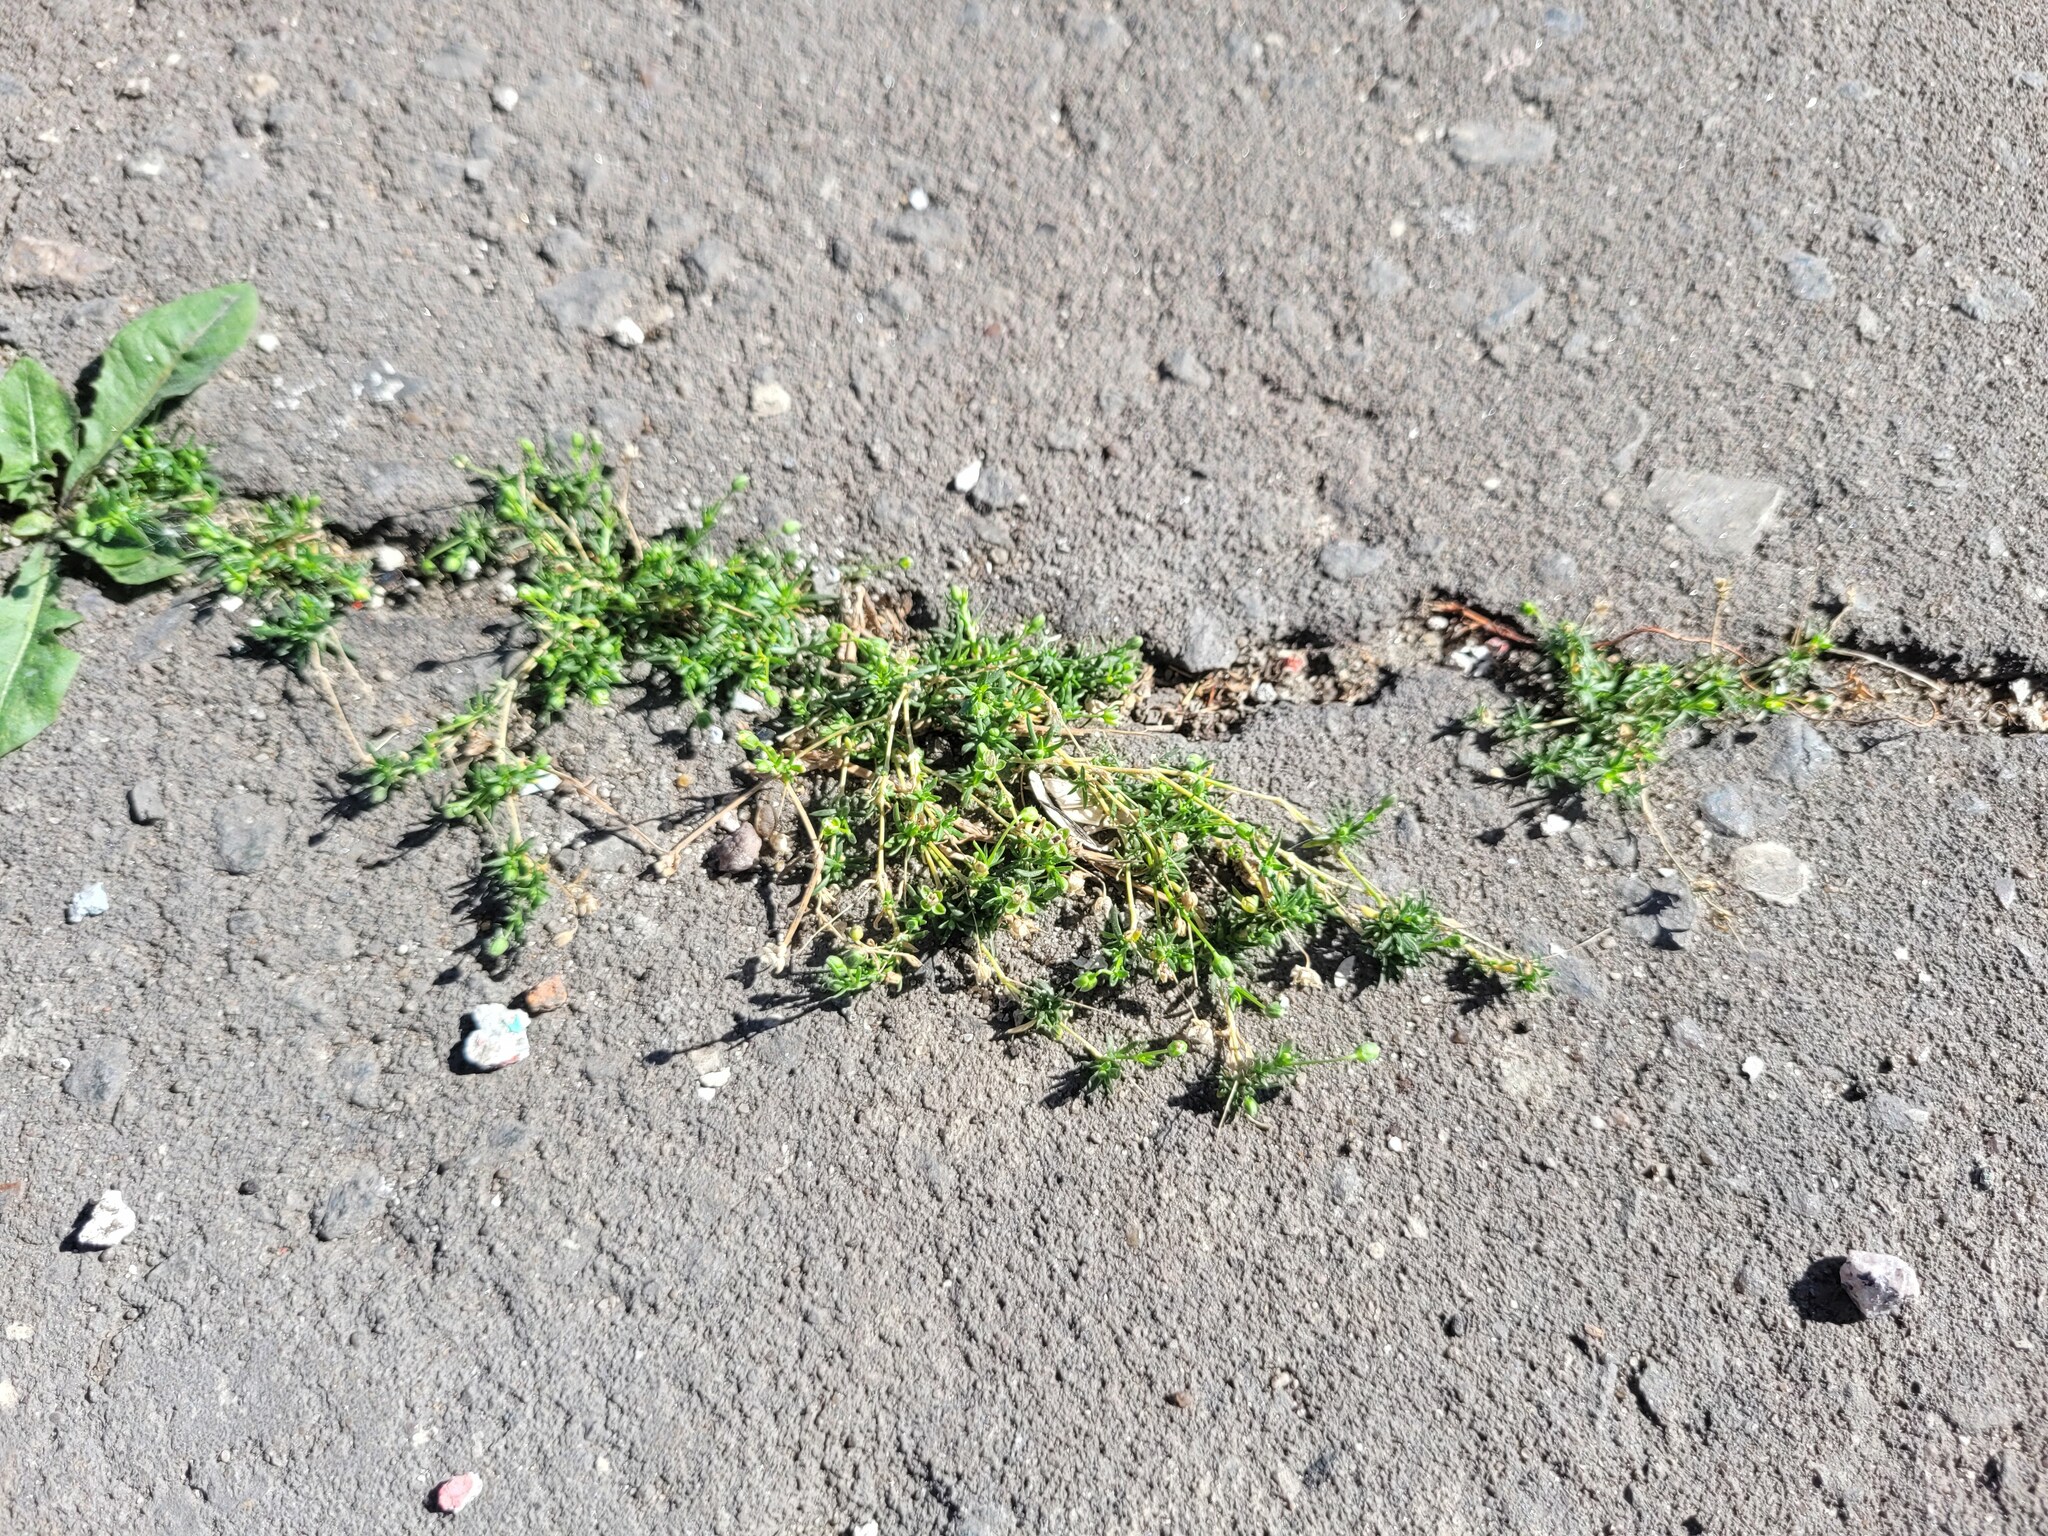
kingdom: Plantae
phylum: Tracheophyta
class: Magnoliopsida
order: Caryophyllales
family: Caryophyllaceae
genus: Sagina
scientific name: Sagina procumbens
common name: Procumbent pearlwort
